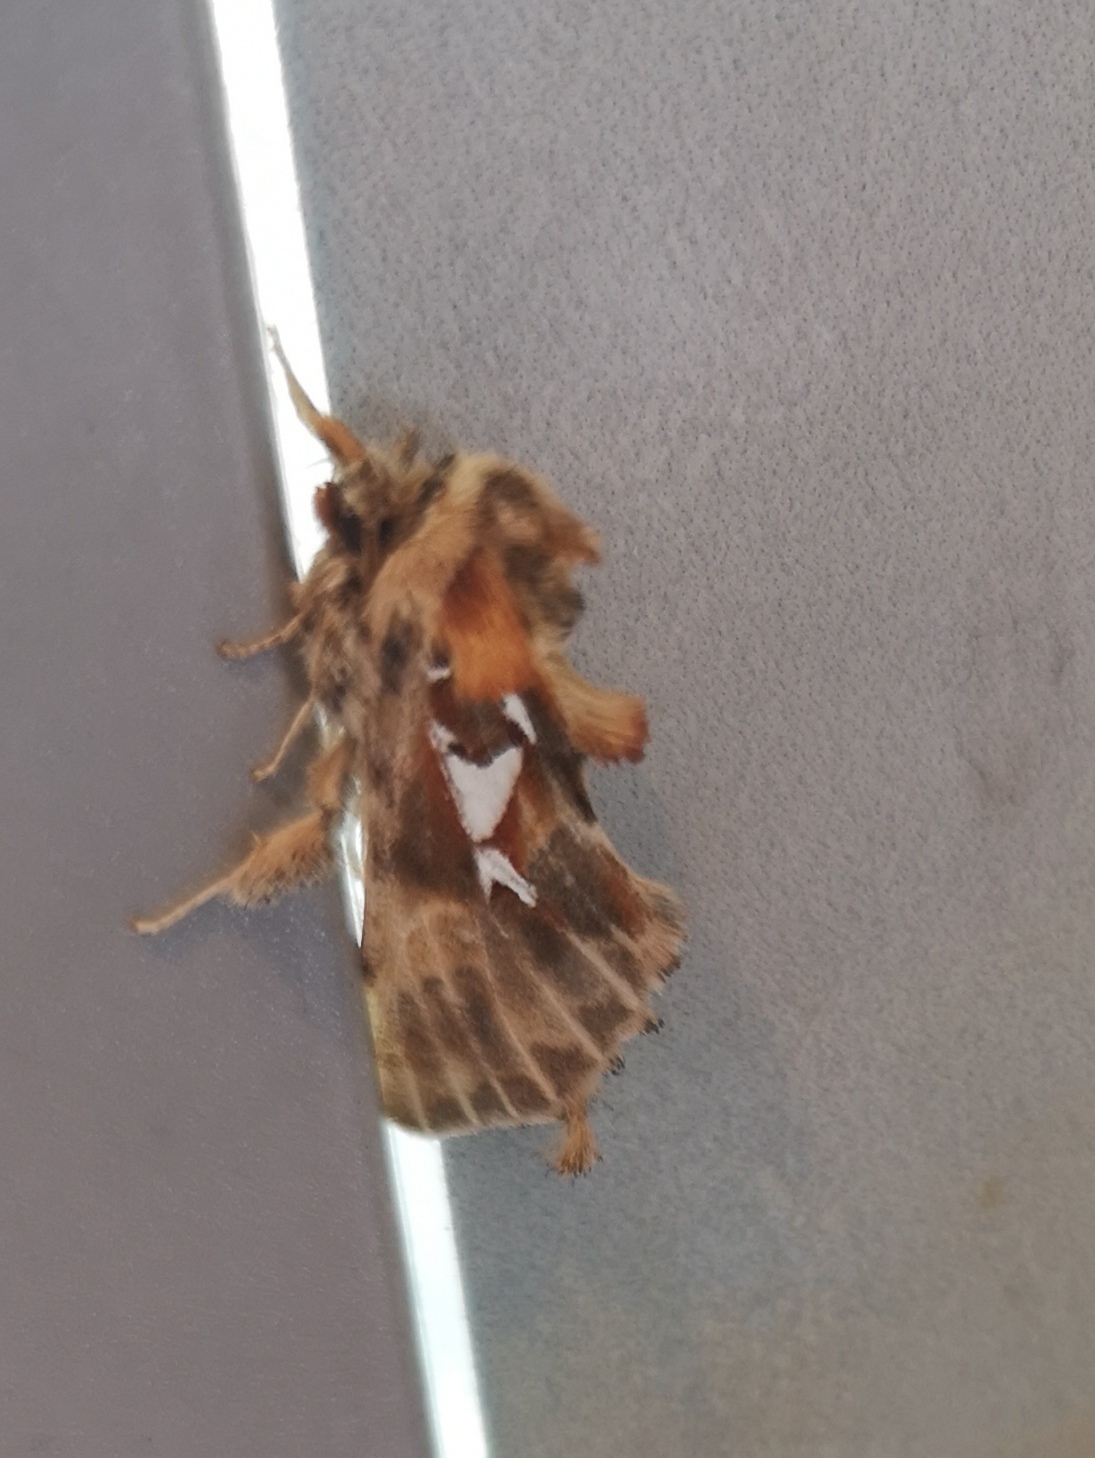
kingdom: Animalia
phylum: Arthropoda
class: Insecta
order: Lepidoptera
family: Notodontidae
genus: Spatalia
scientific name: Spatalia argentina
